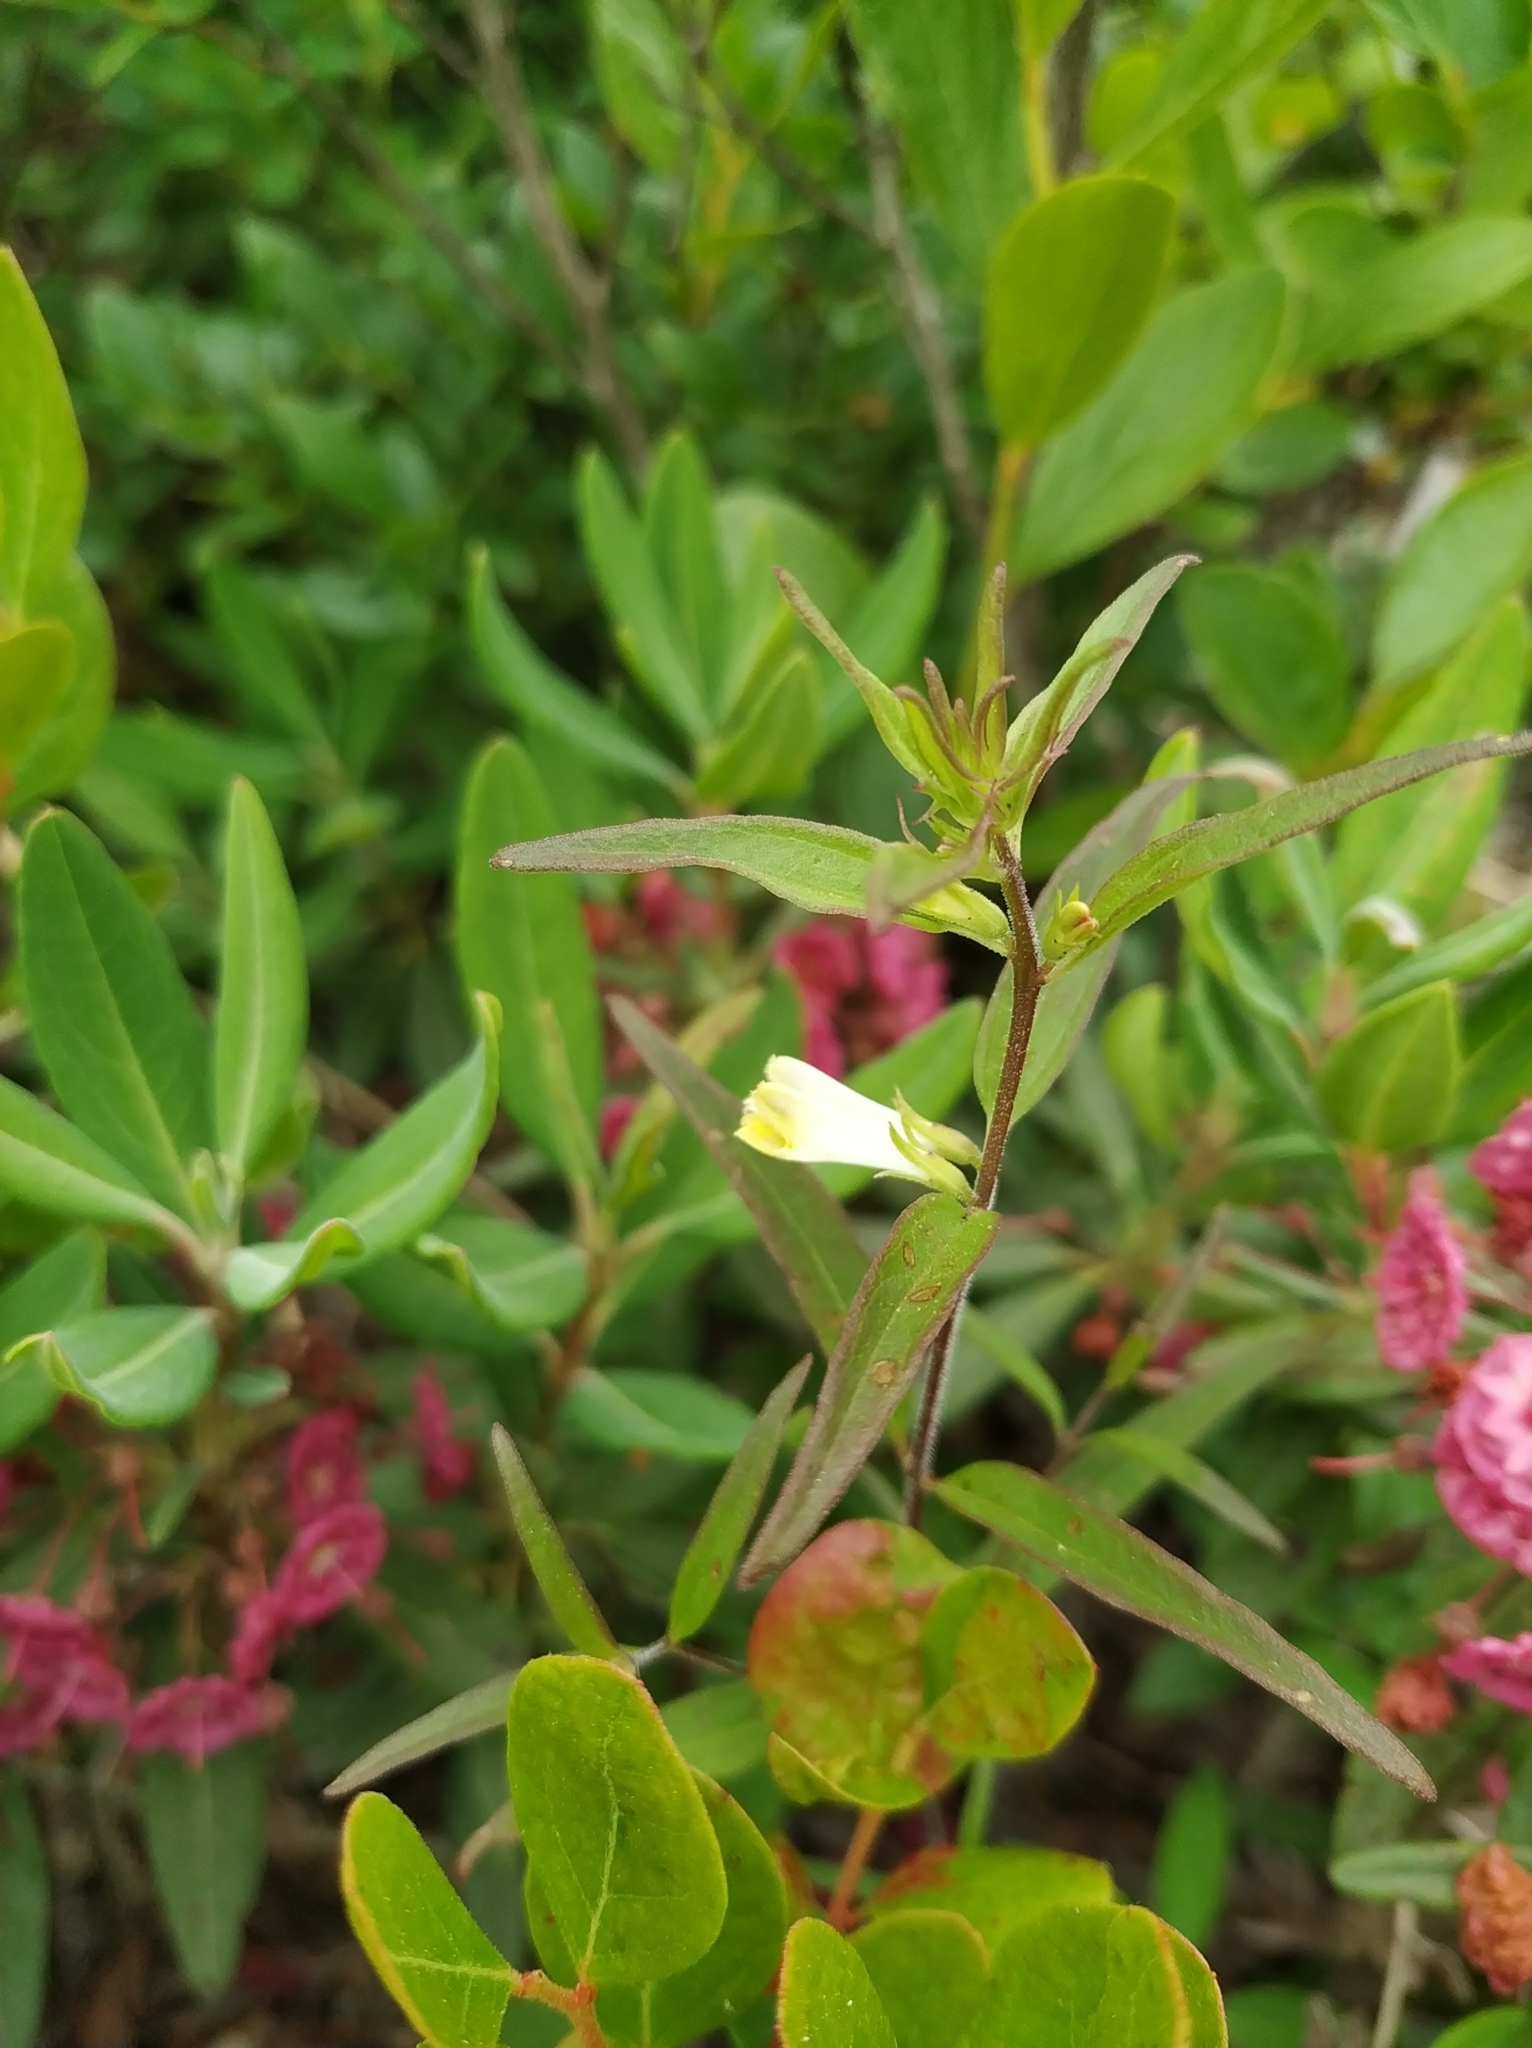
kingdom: Plantae
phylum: Tracheophyta
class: Magnoliopsida
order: Lamiales
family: Orobanchaceae
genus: Melampyrum
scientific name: Melampyrum lineare
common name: American cow-wheat
